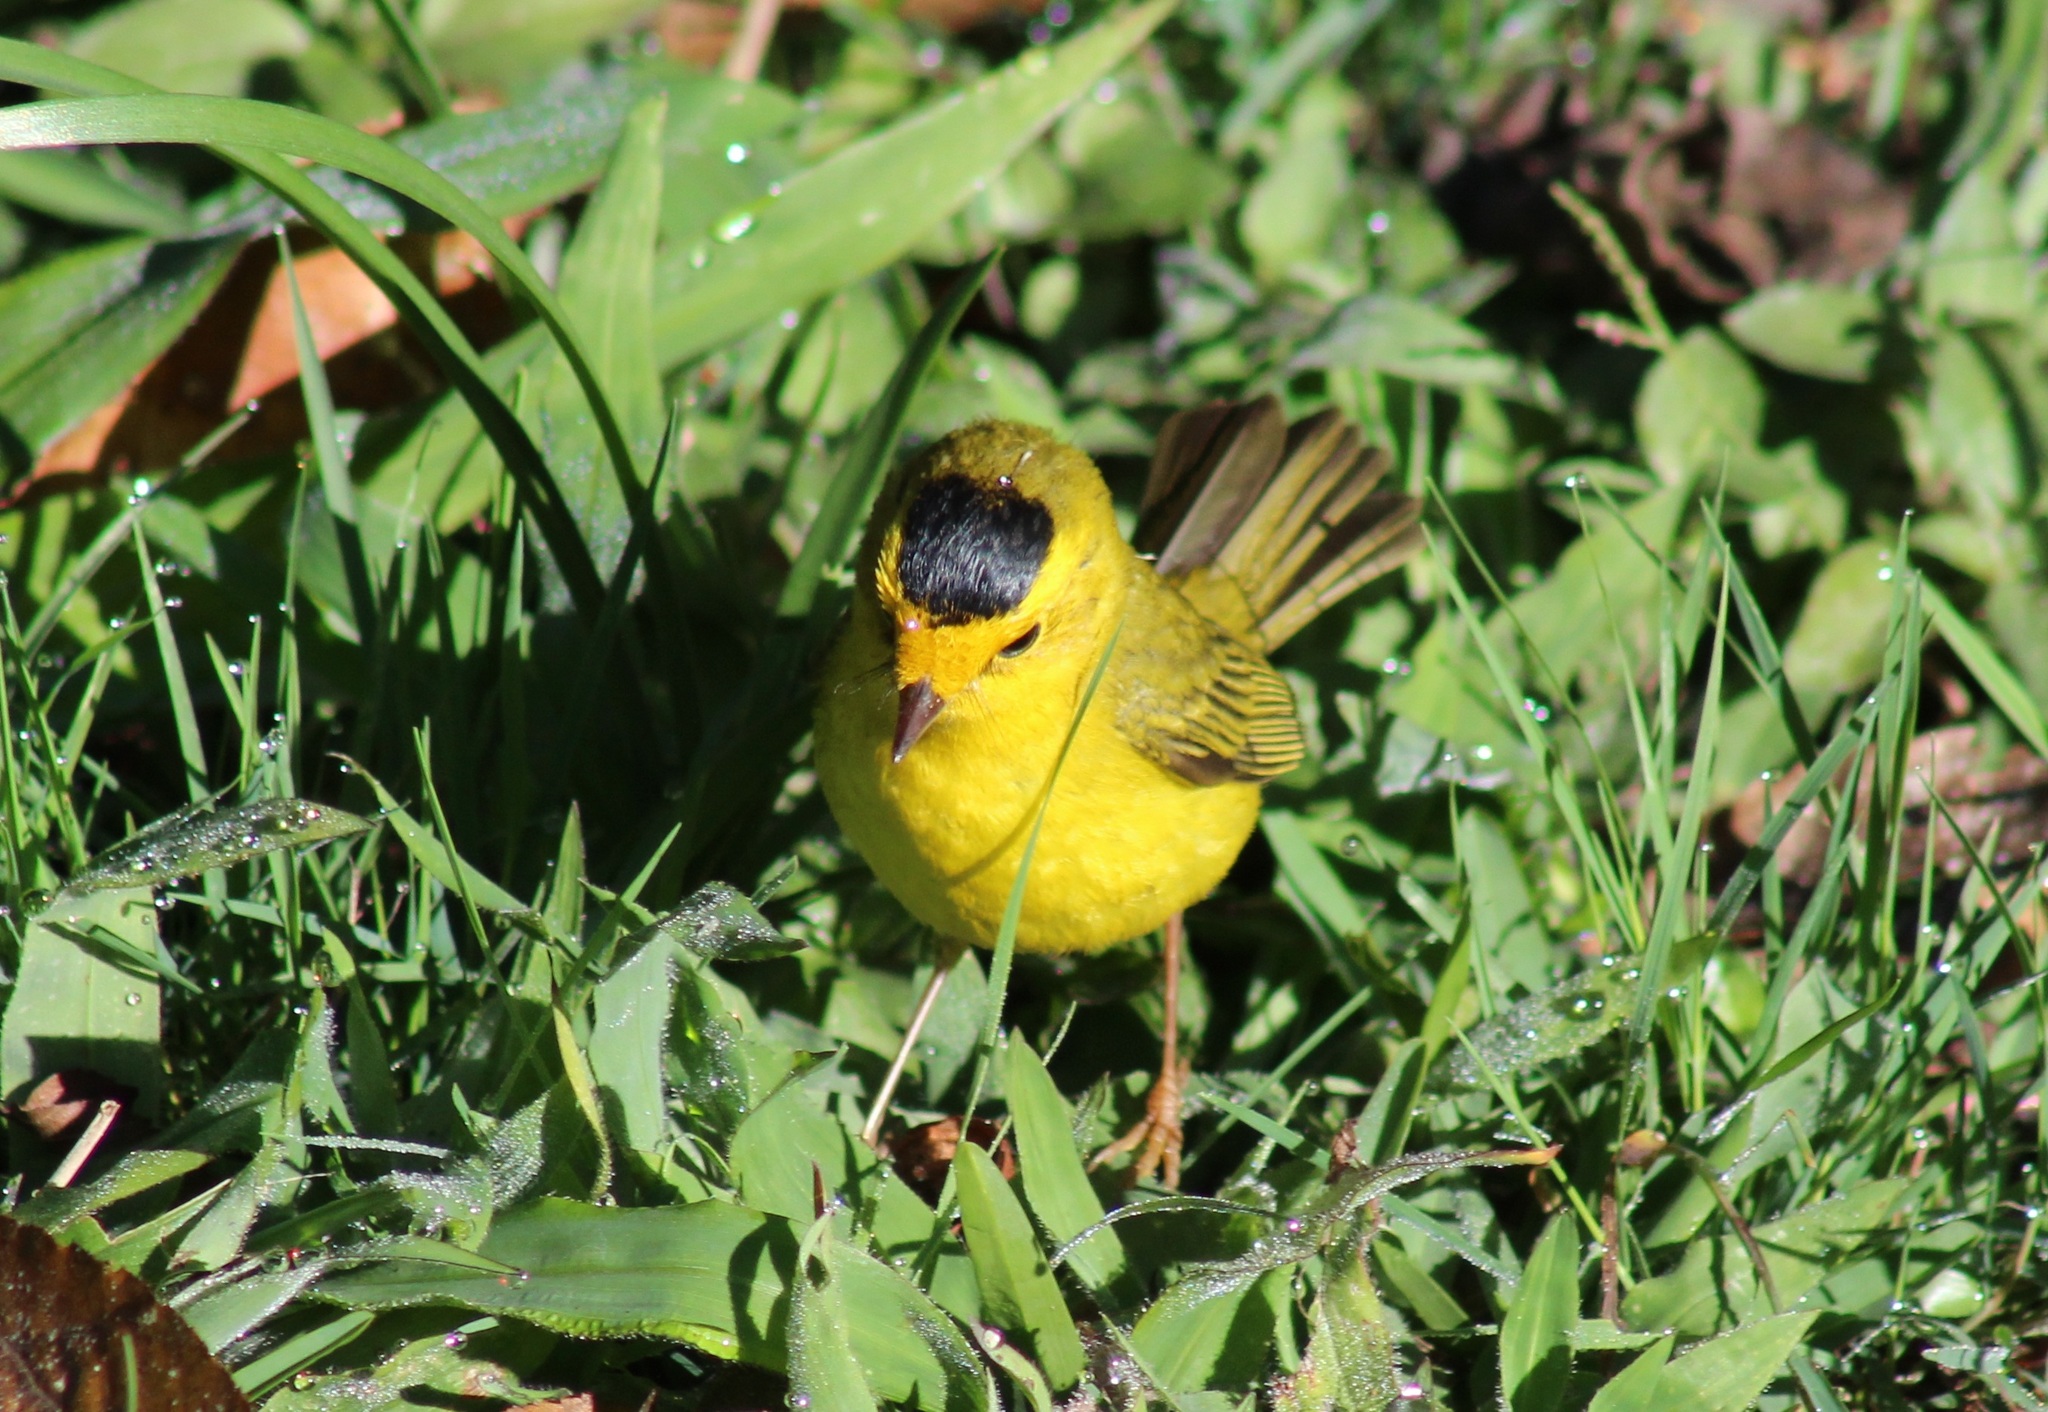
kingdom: Animalia
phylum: Chordata
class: Aves
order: Passeriformes
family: Parulidae
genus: Cardellina
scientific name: Cardellina pusilla
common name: Wilson's warbler
